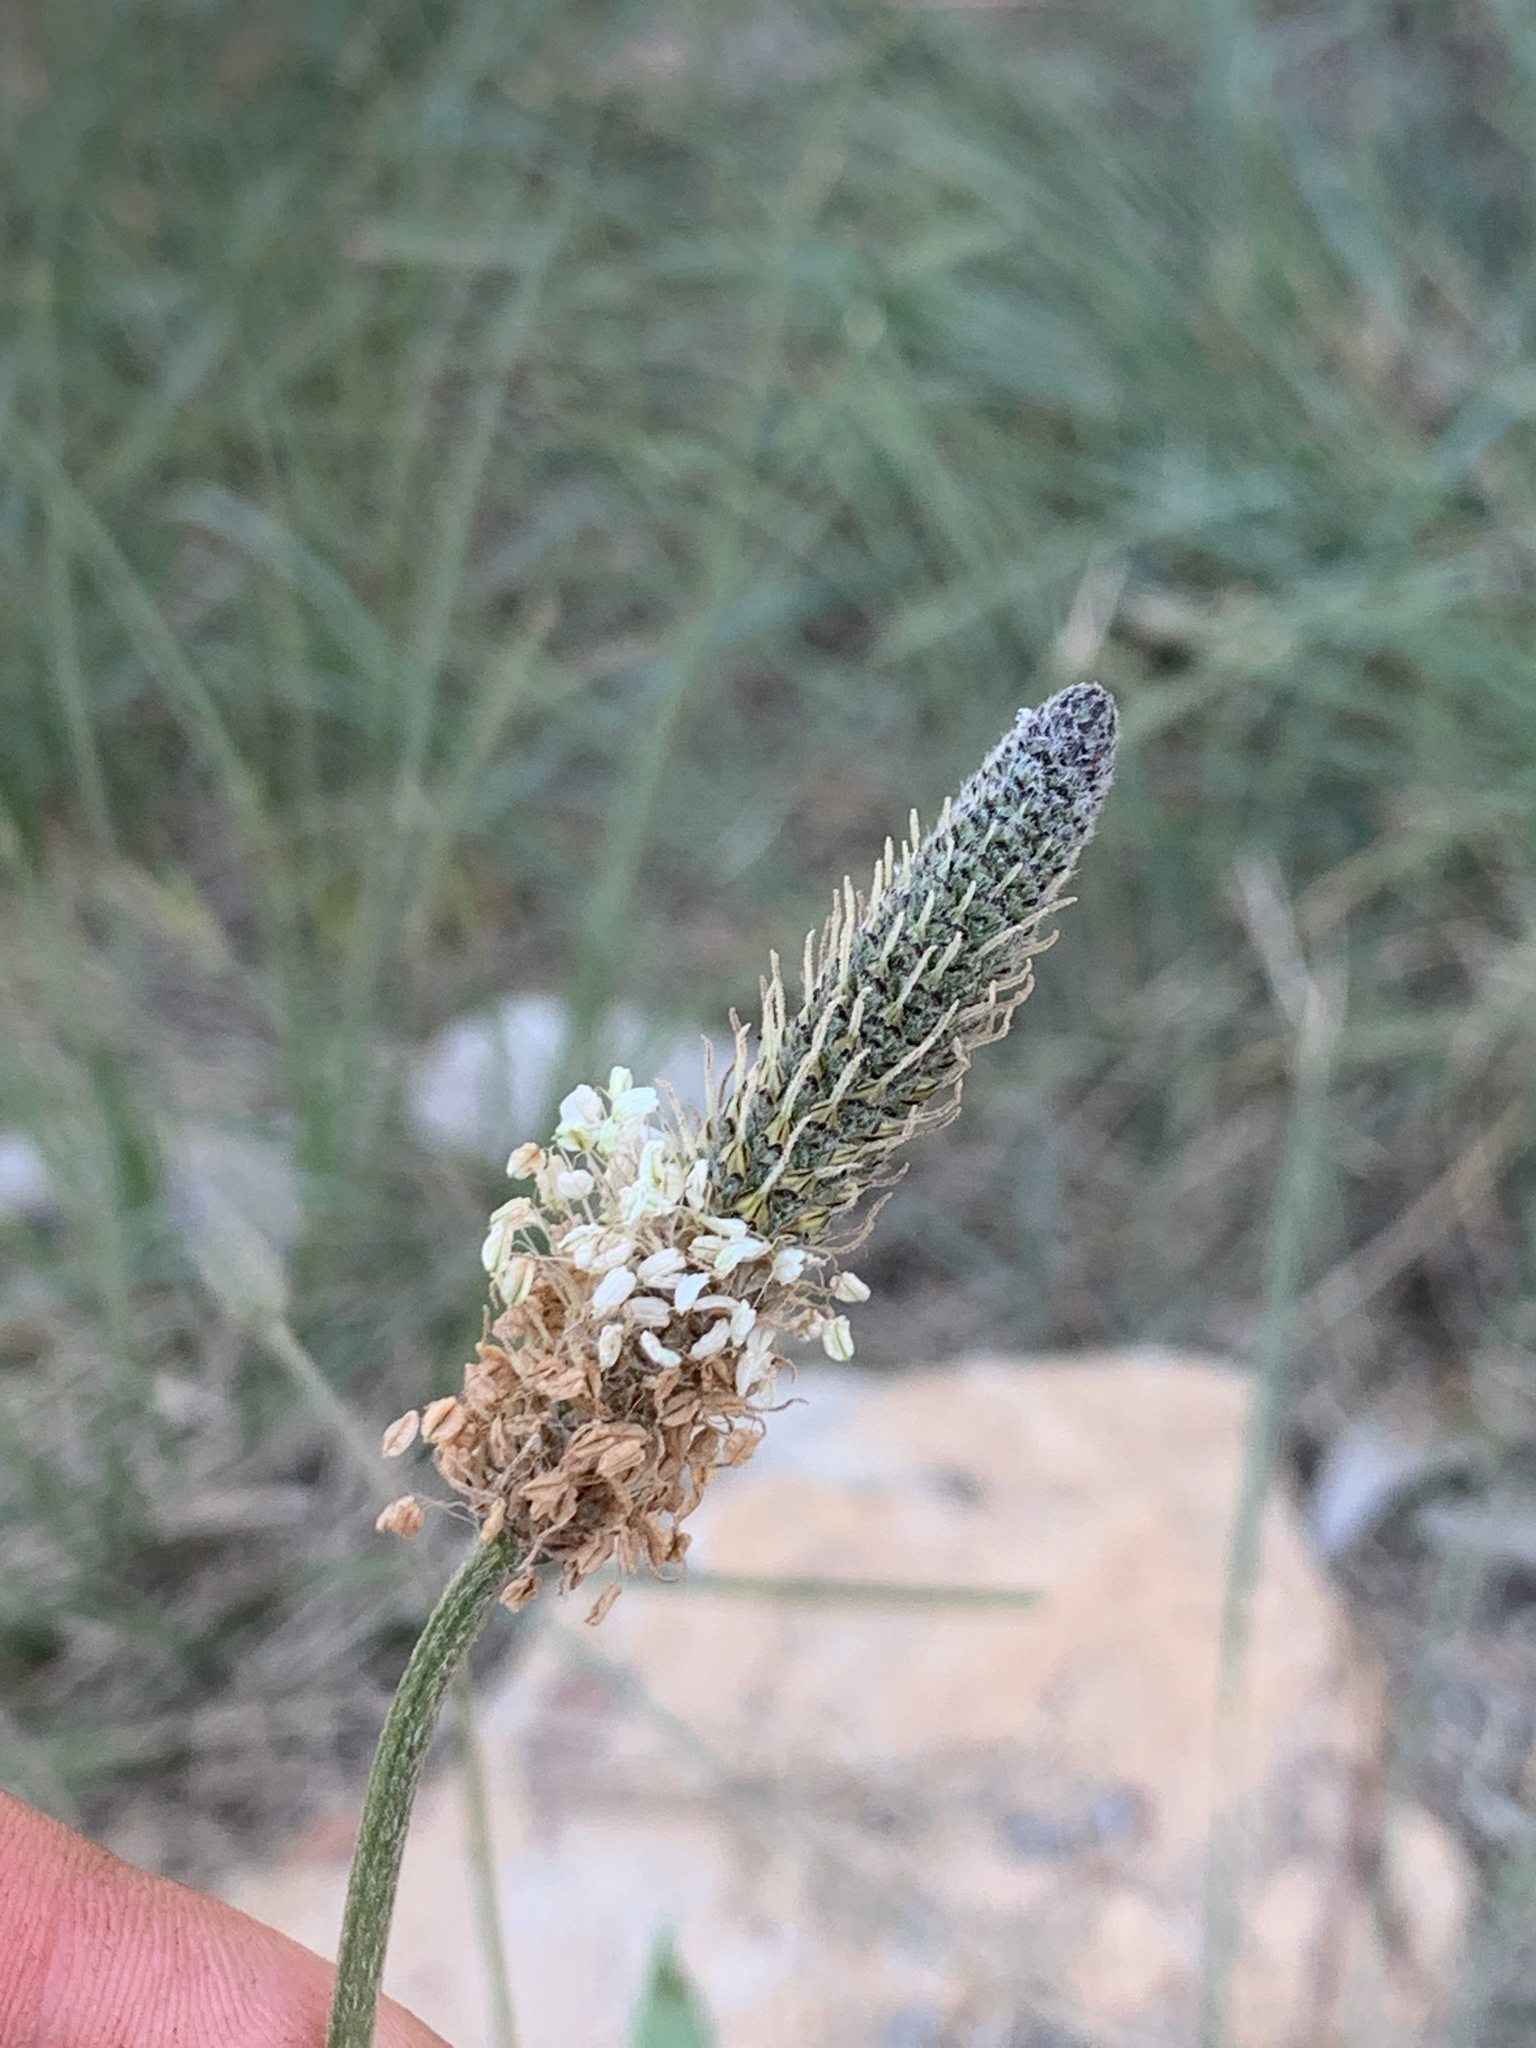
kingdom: Plantae
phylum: Tracheophyta
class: Magnoliopsida
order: Lamiales
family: Plantaginaceae
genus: Plantago
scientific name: Plantago lanceolata
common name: Ribwort plantain
